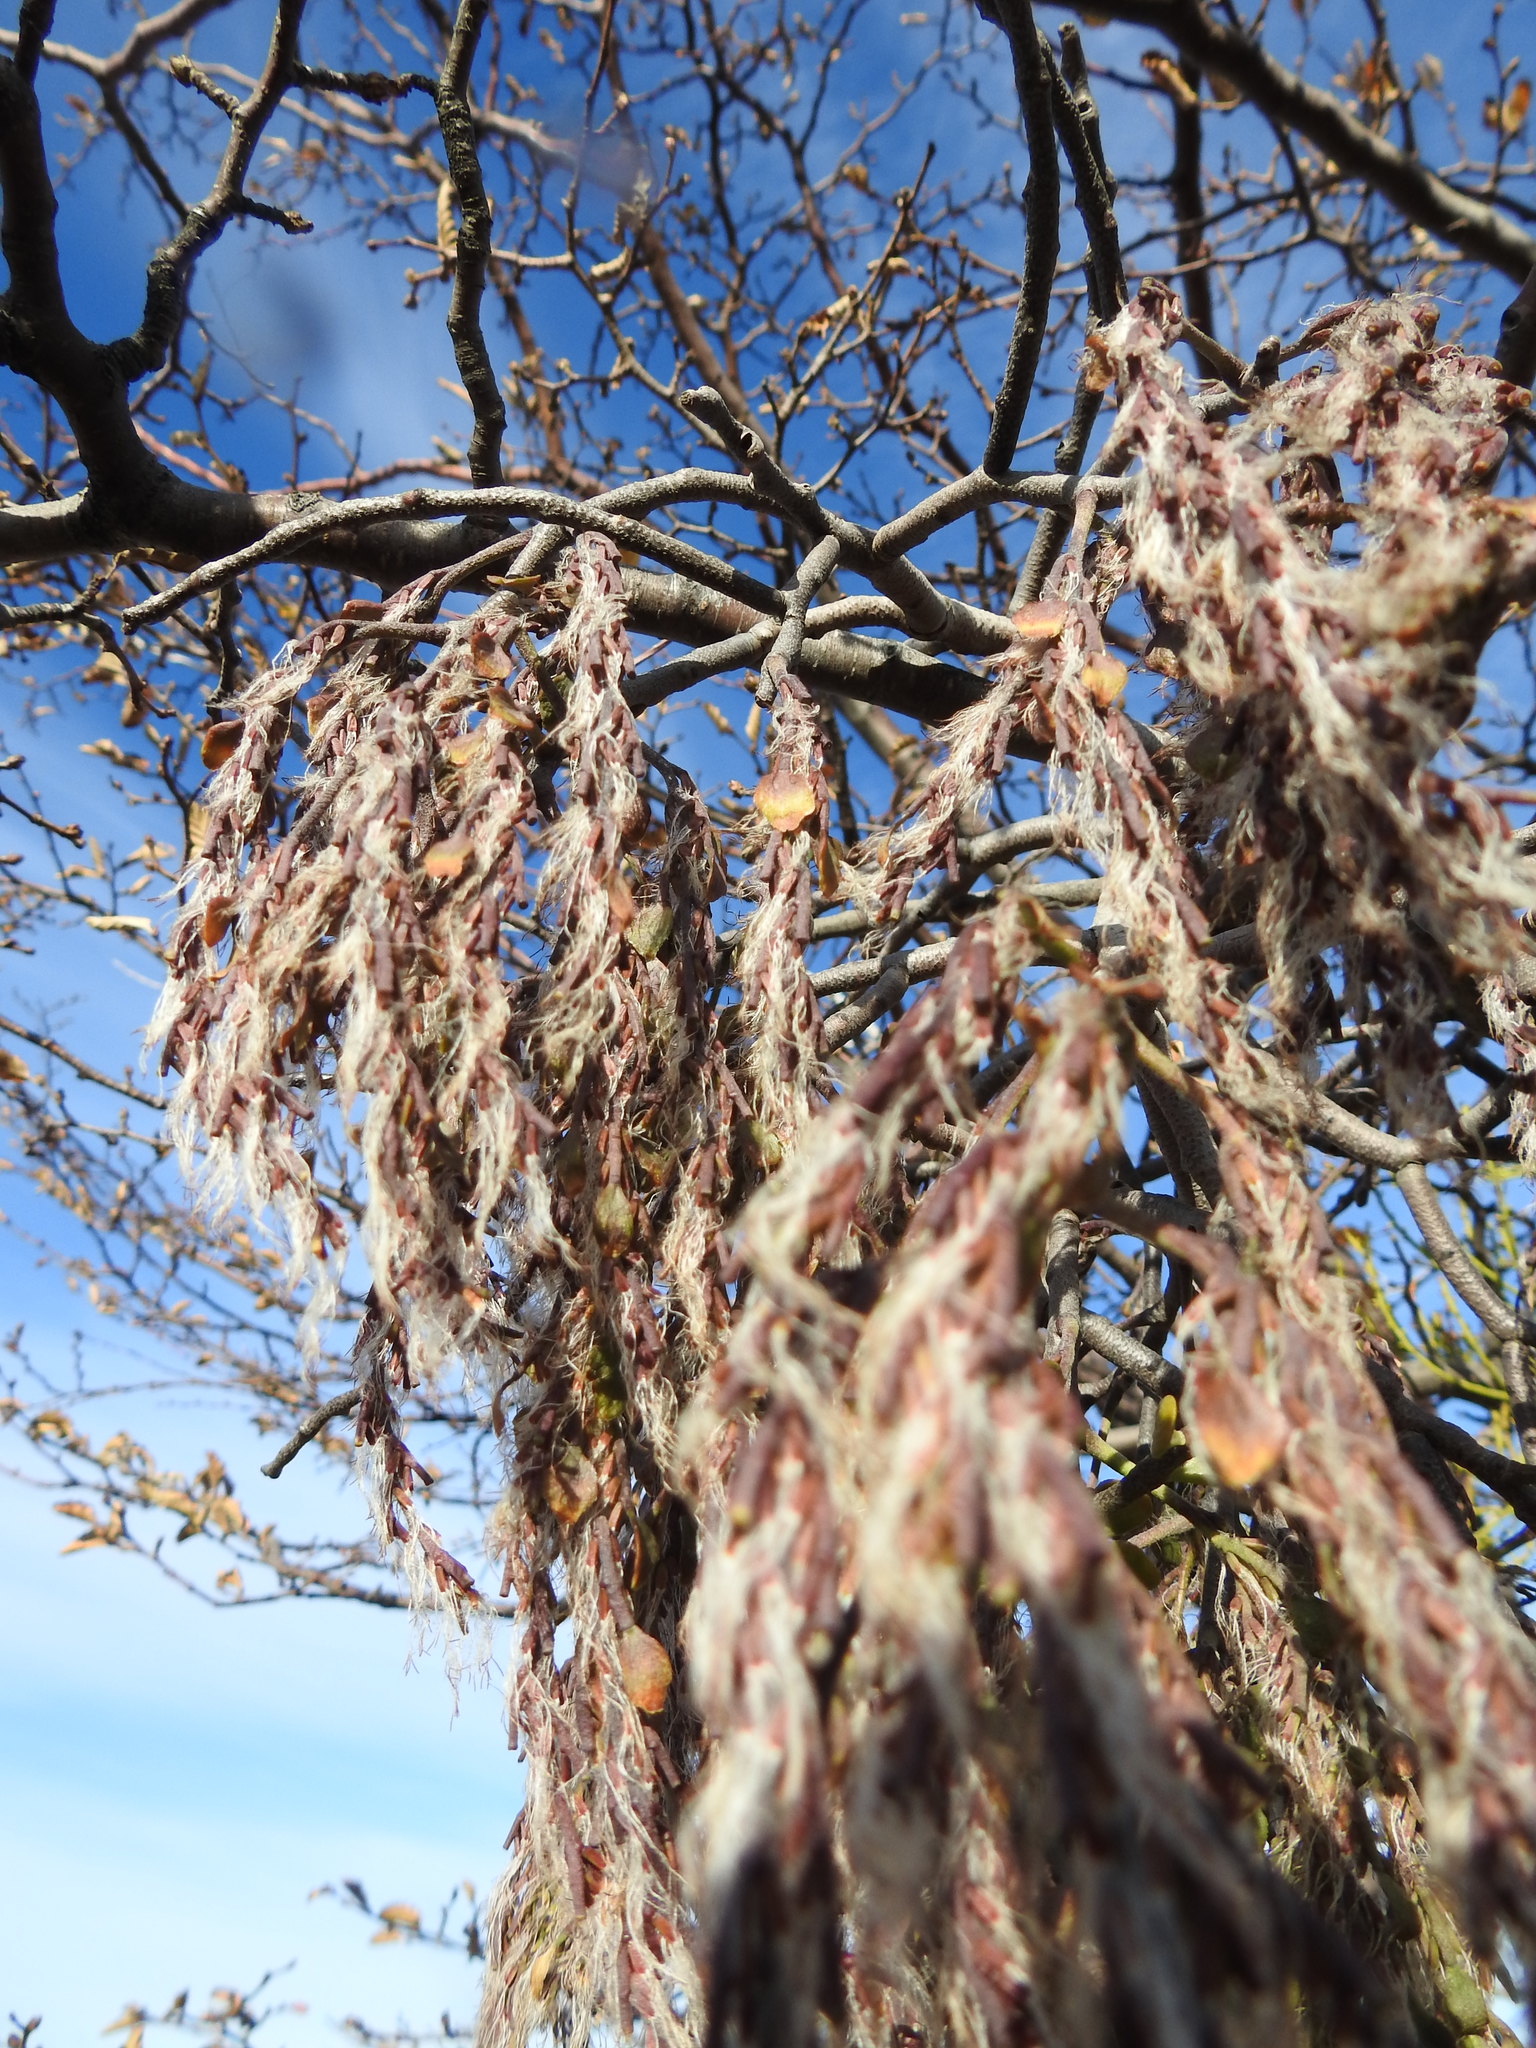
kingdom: Plantae
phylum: Tracheophyta
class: Magnoliopsida
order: Santalales
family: Misodendraceae
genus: Misodendrum
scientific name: Misodendrum quadriflorum
